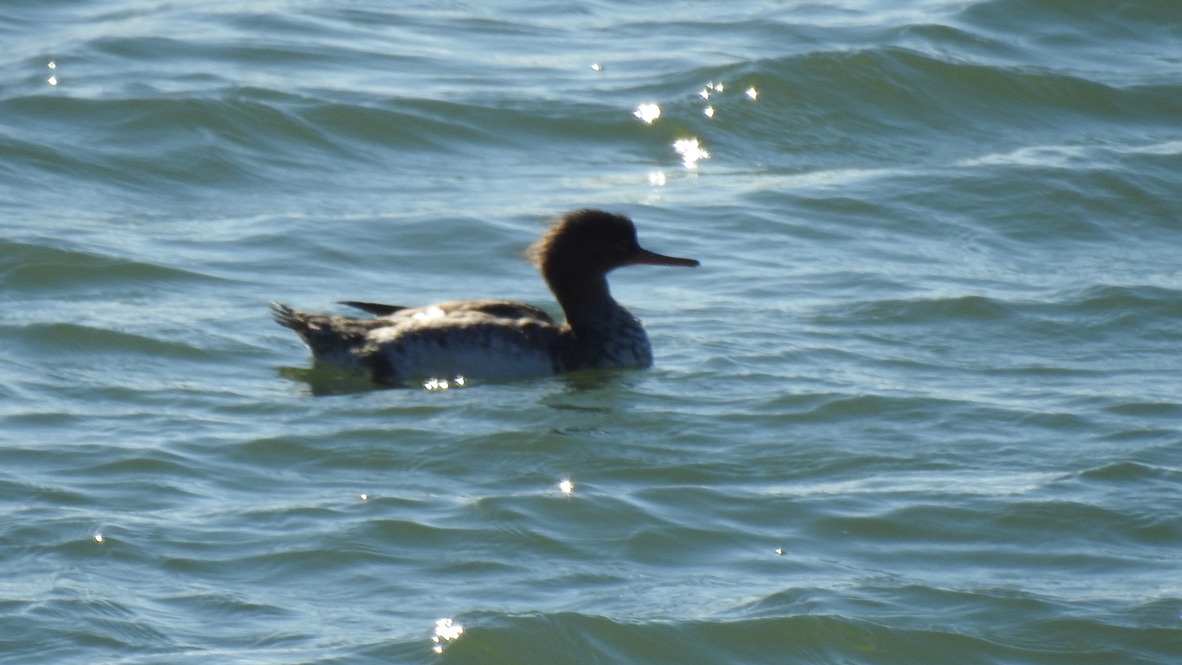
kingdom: Animalia
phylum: Chordata
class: Aves
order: Anseriformes
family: Anatidae
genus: Mergus
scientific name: Mergus serrator
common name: Red-breasted merganser
